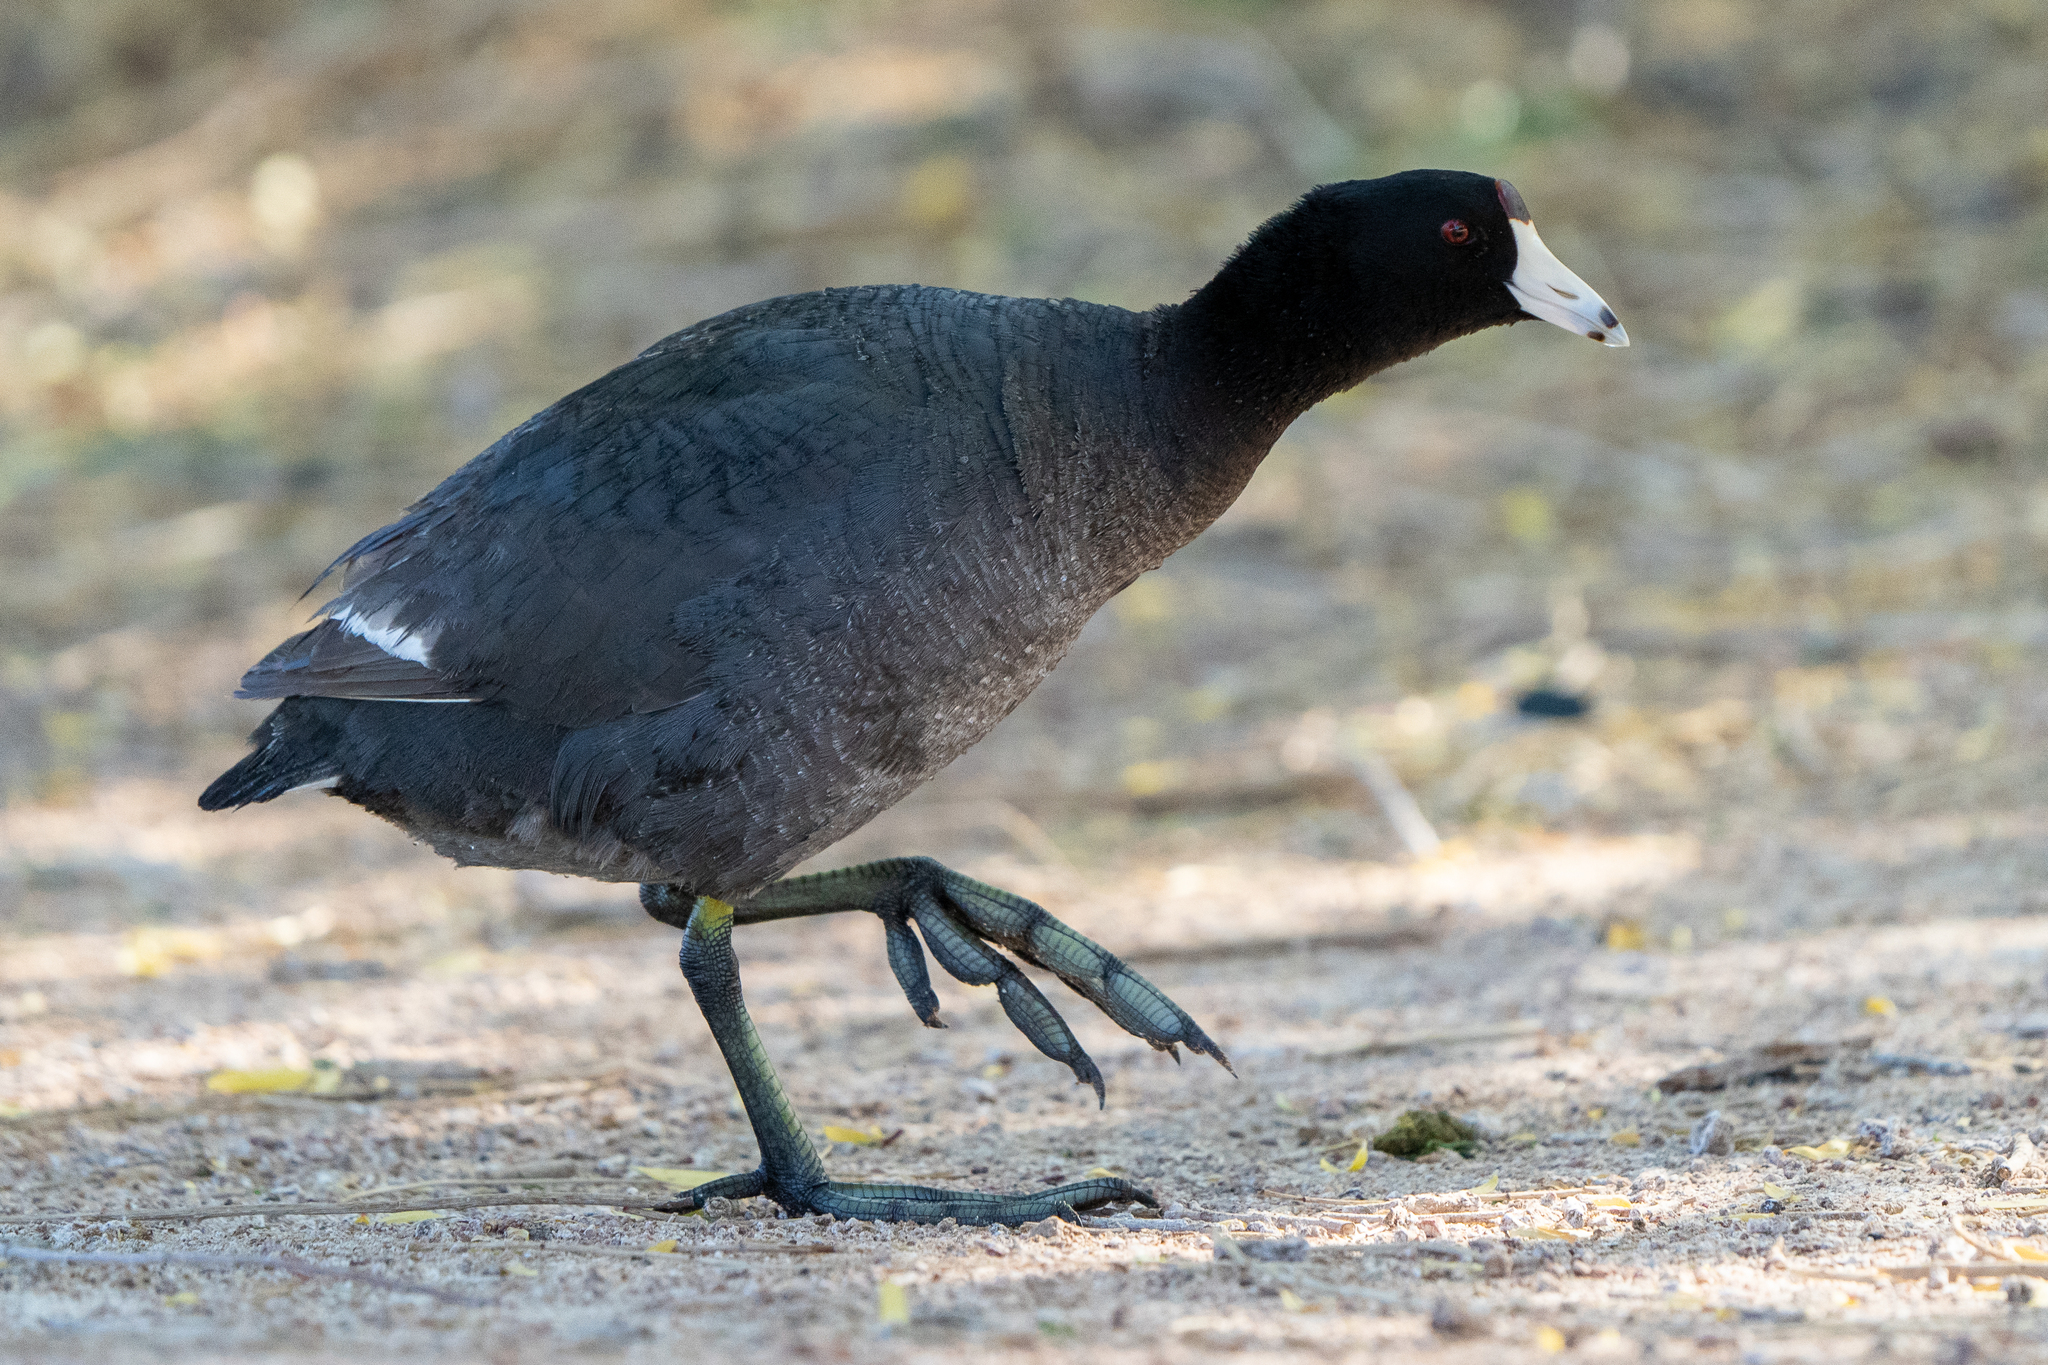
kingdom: Animalia
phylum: Chordata
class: Aves
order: Gruiformes
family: Rallidae
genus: Fulica
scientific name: Fulica americana
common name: American coot
